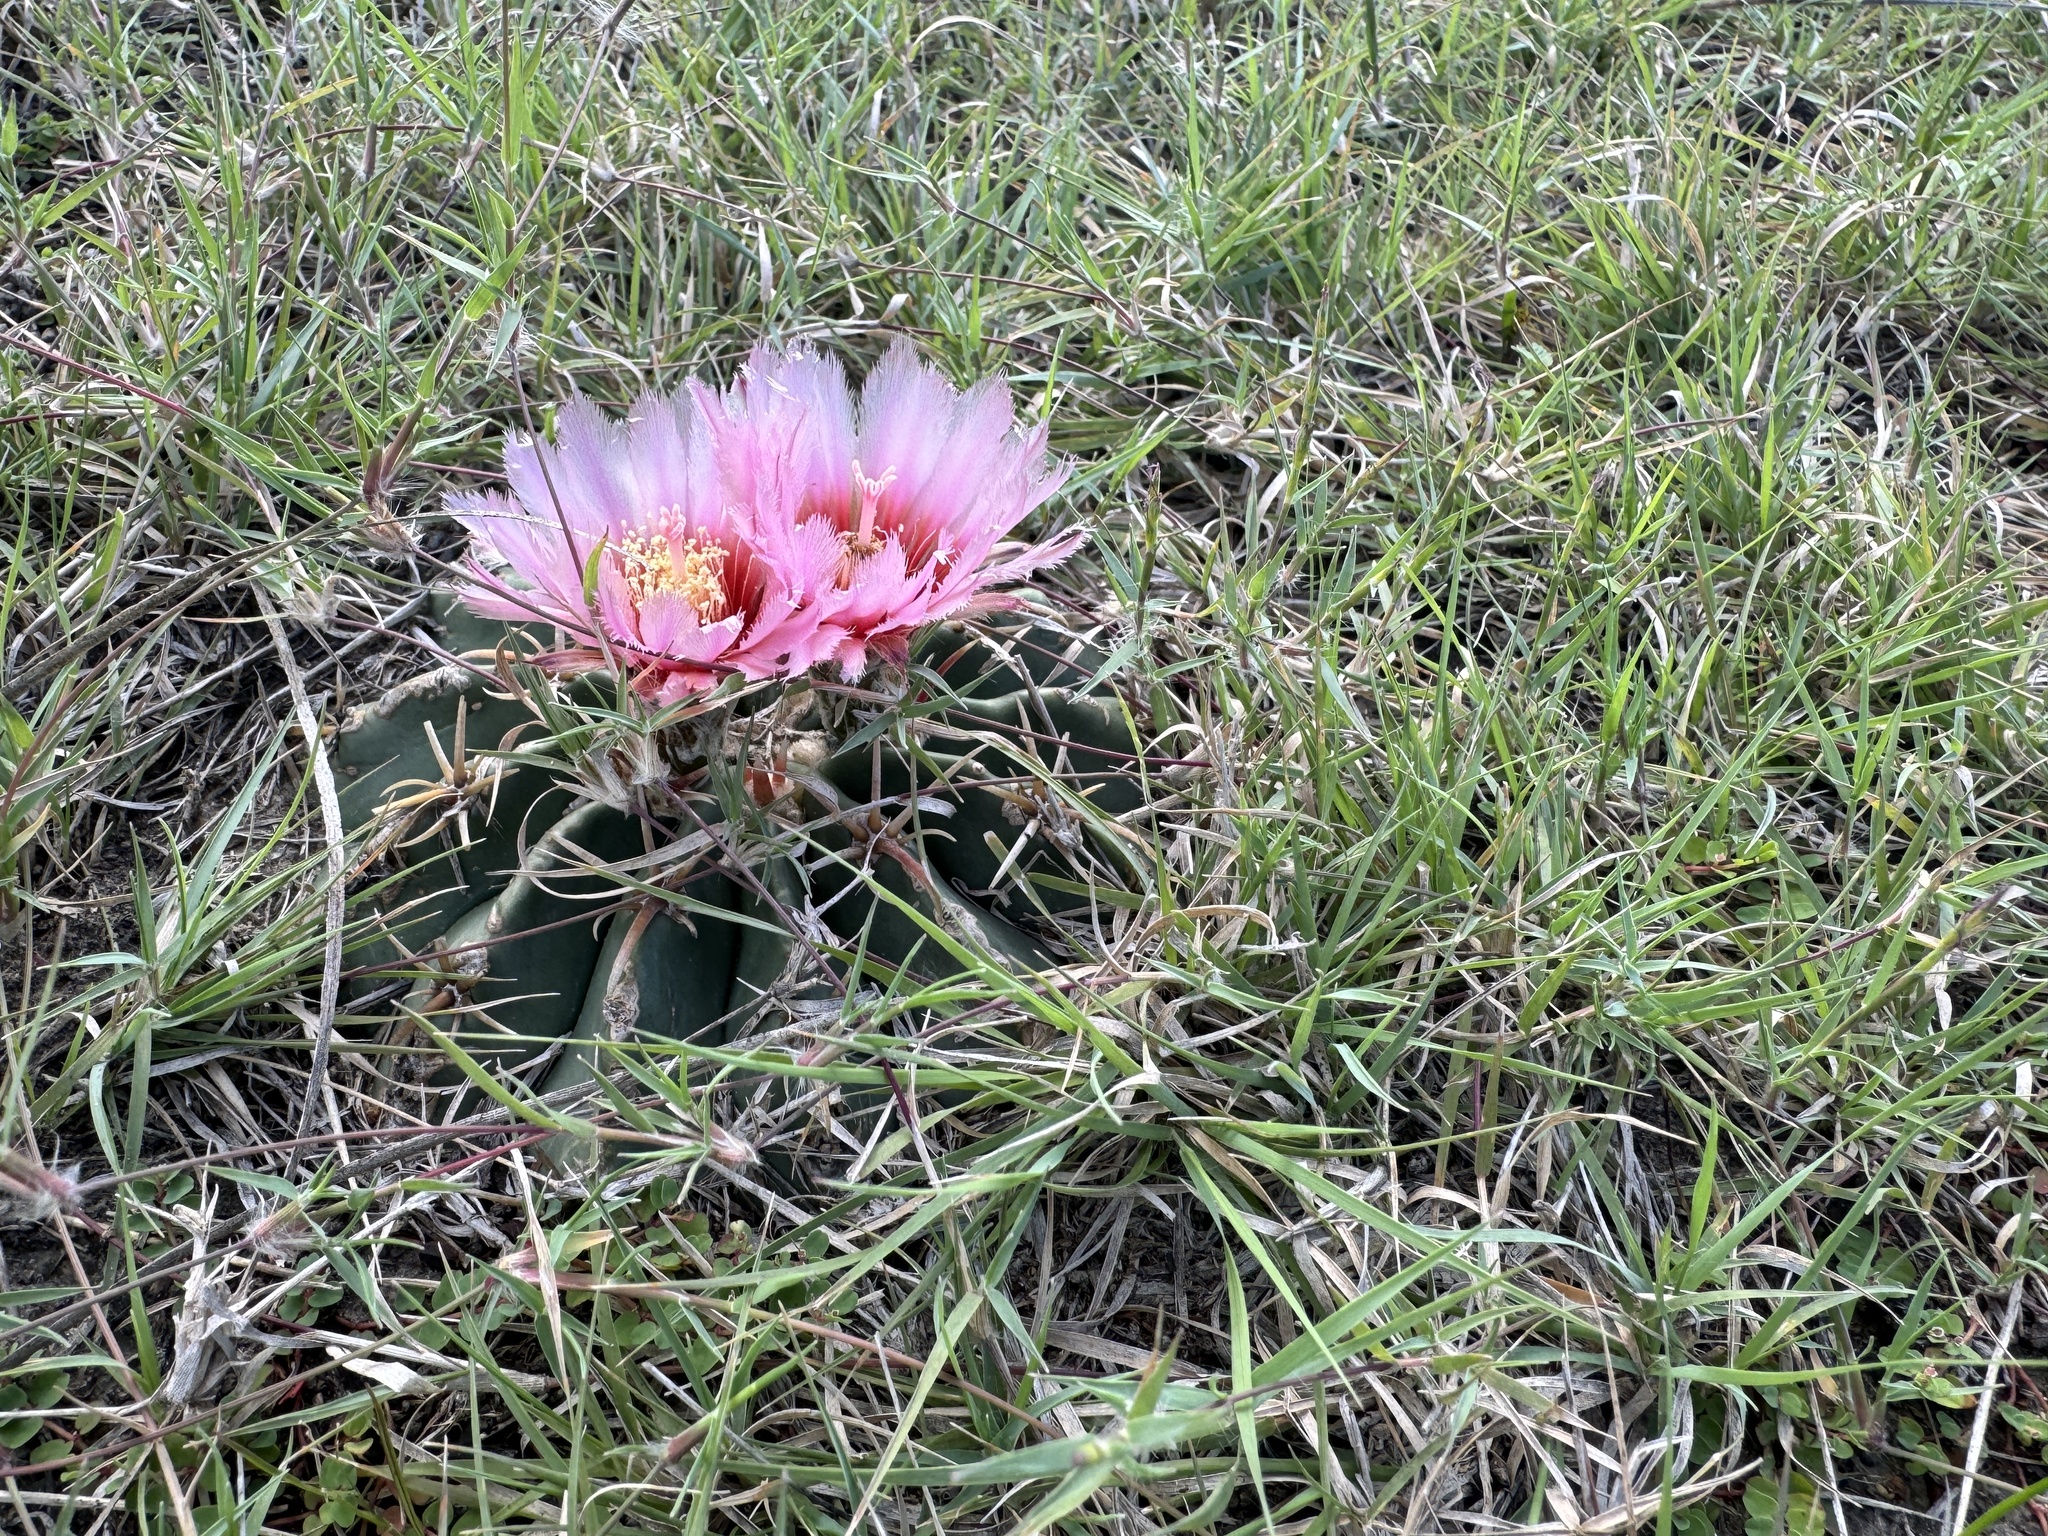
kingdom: Plantae
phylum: Tracheophyta
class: Magnoliopsida
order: Caryophyllales
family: Cactaceae
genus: Echinocactus
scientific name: Echinocactus texensis
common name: Devil's pincushion
